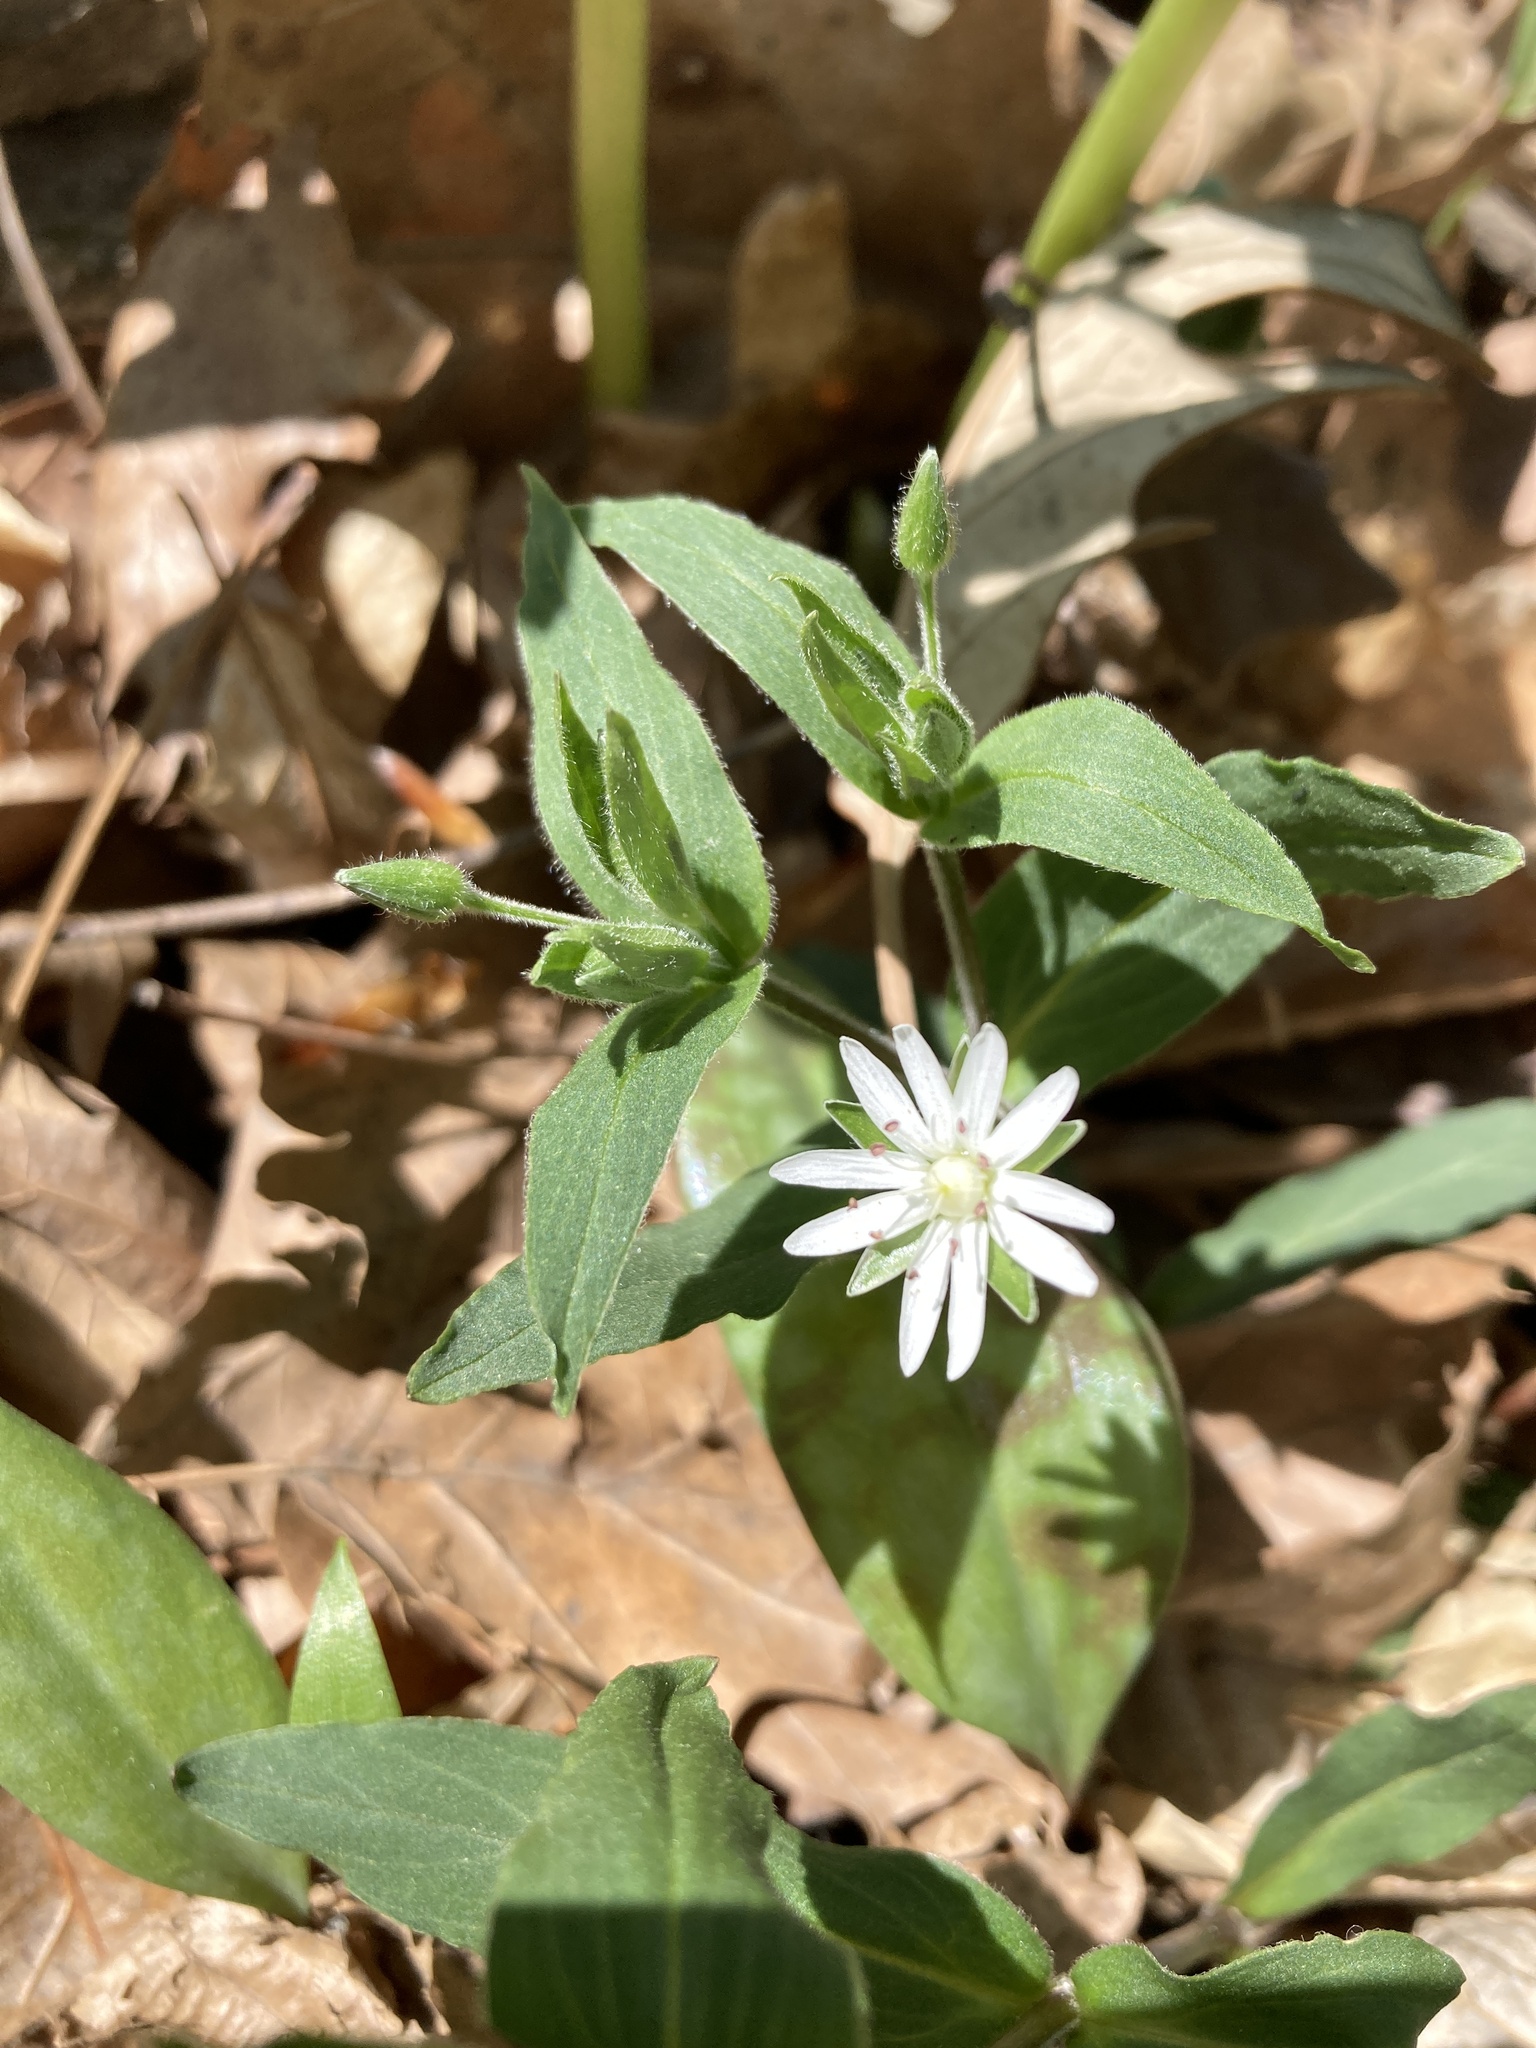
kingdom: Plantae
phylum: Tracheophyta
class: Magnoliopsida
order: Caryophyllales
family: Caryophyllaceae
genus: Stellaria
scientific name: Stellaria pubera
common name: Star chickweed
